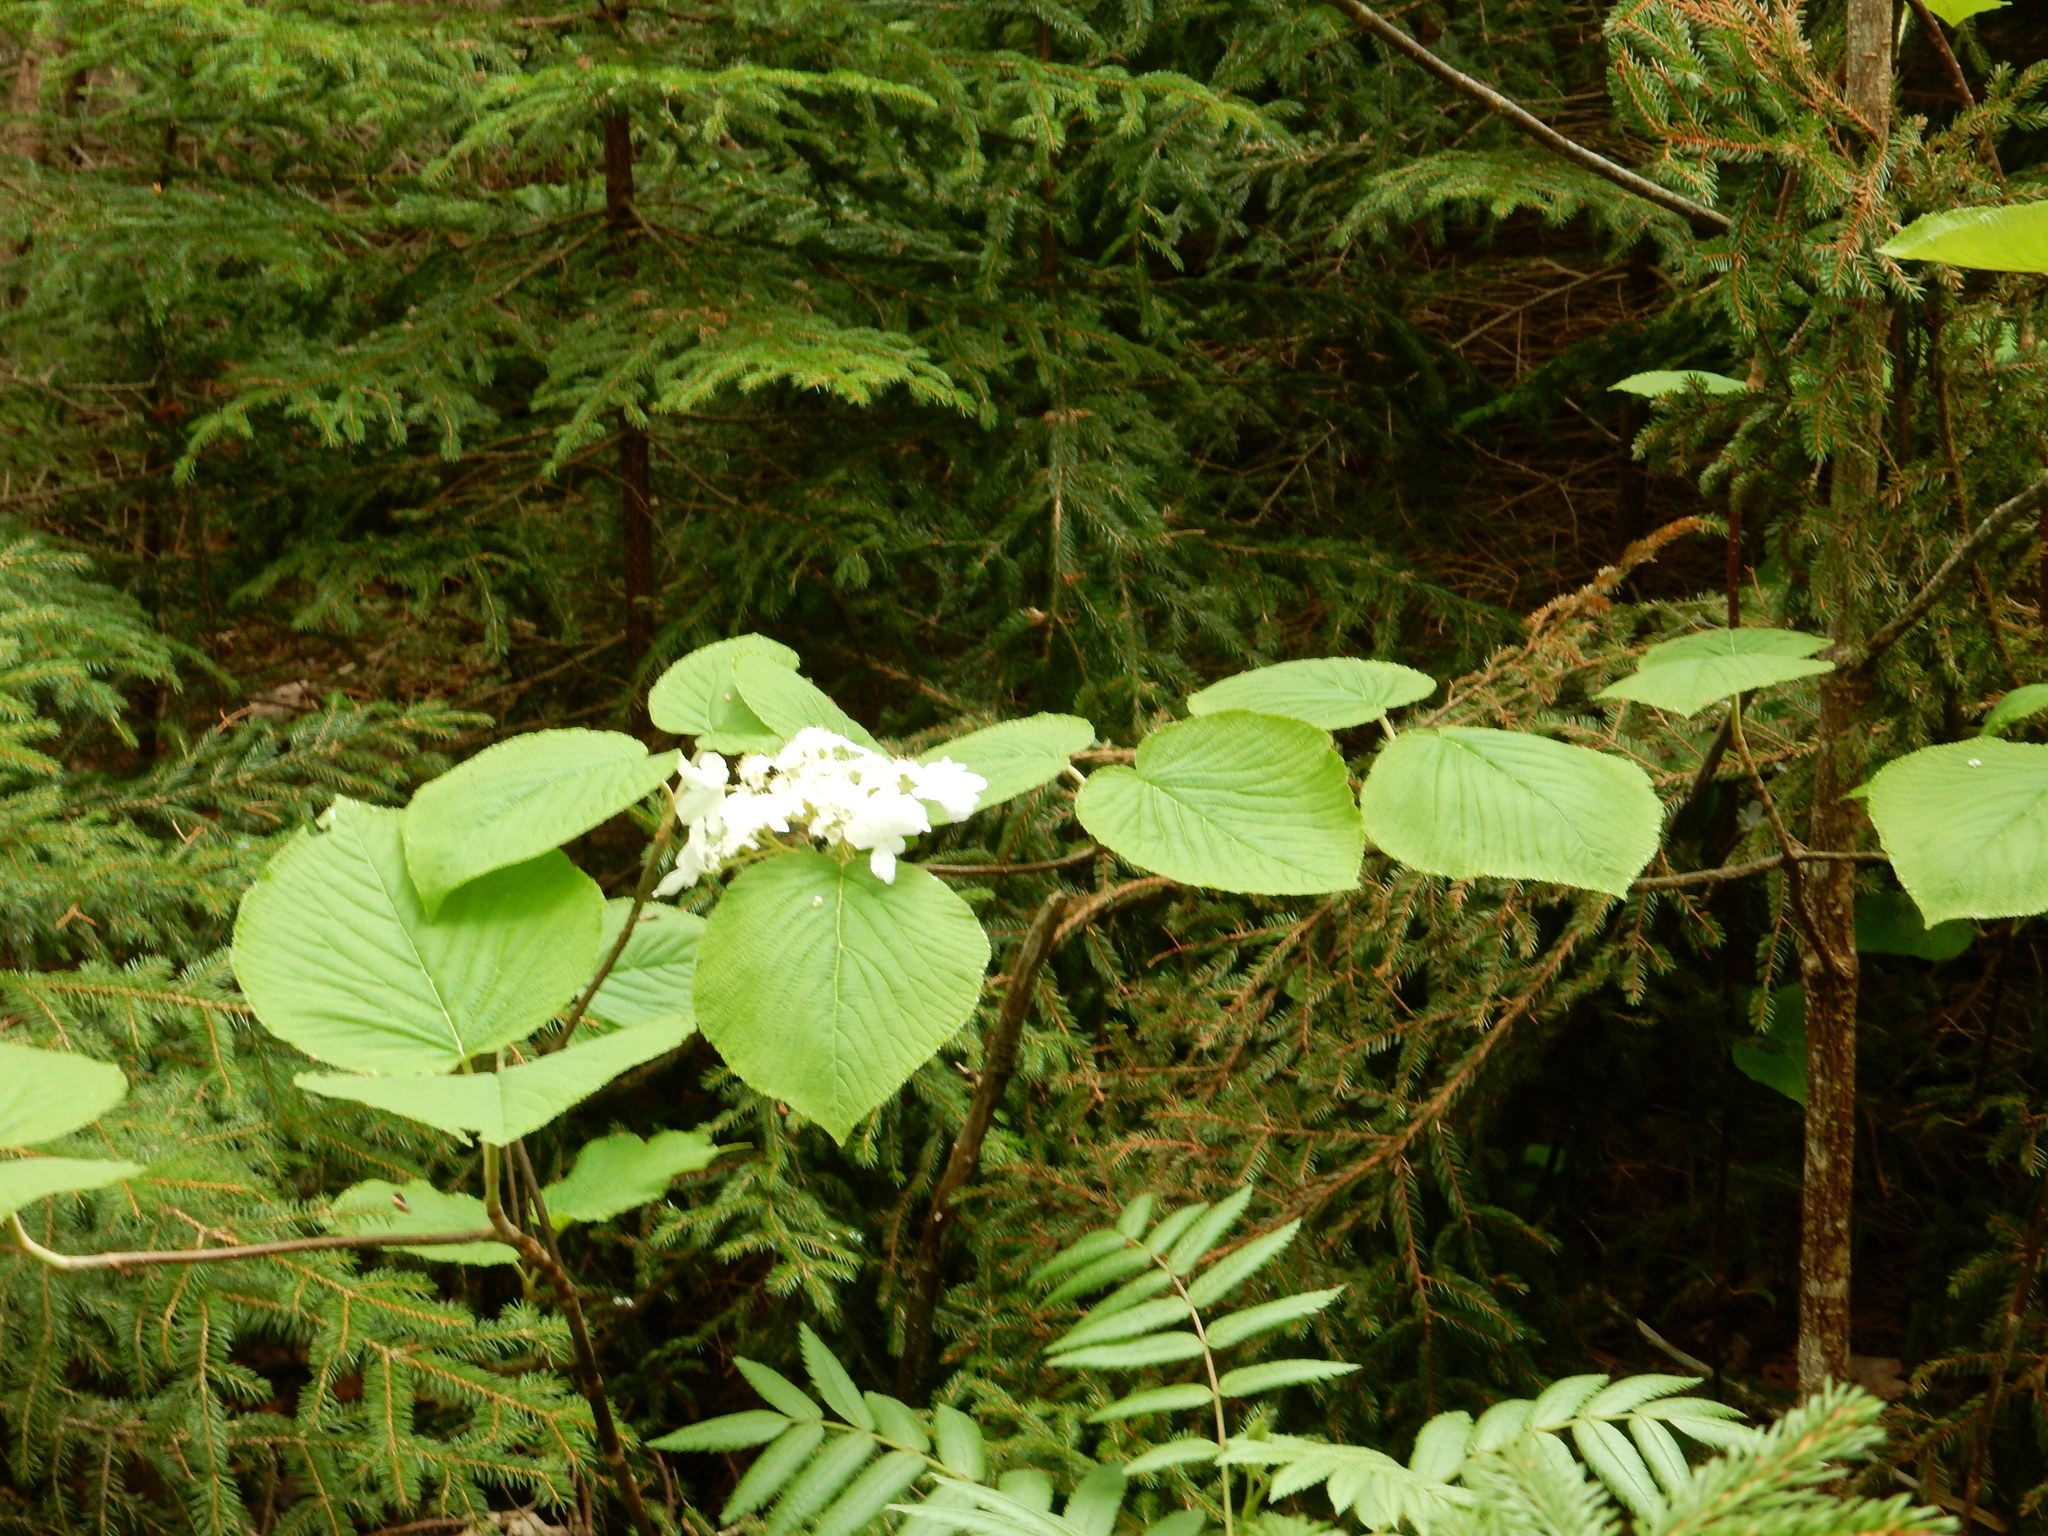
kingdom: Plantae
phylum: Tracheophyta
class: Magnoliopsida
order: Dipsacales
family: Viburnaceae
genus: Viburnum
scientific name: Viburnum lantanoides
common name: Hobblebush
